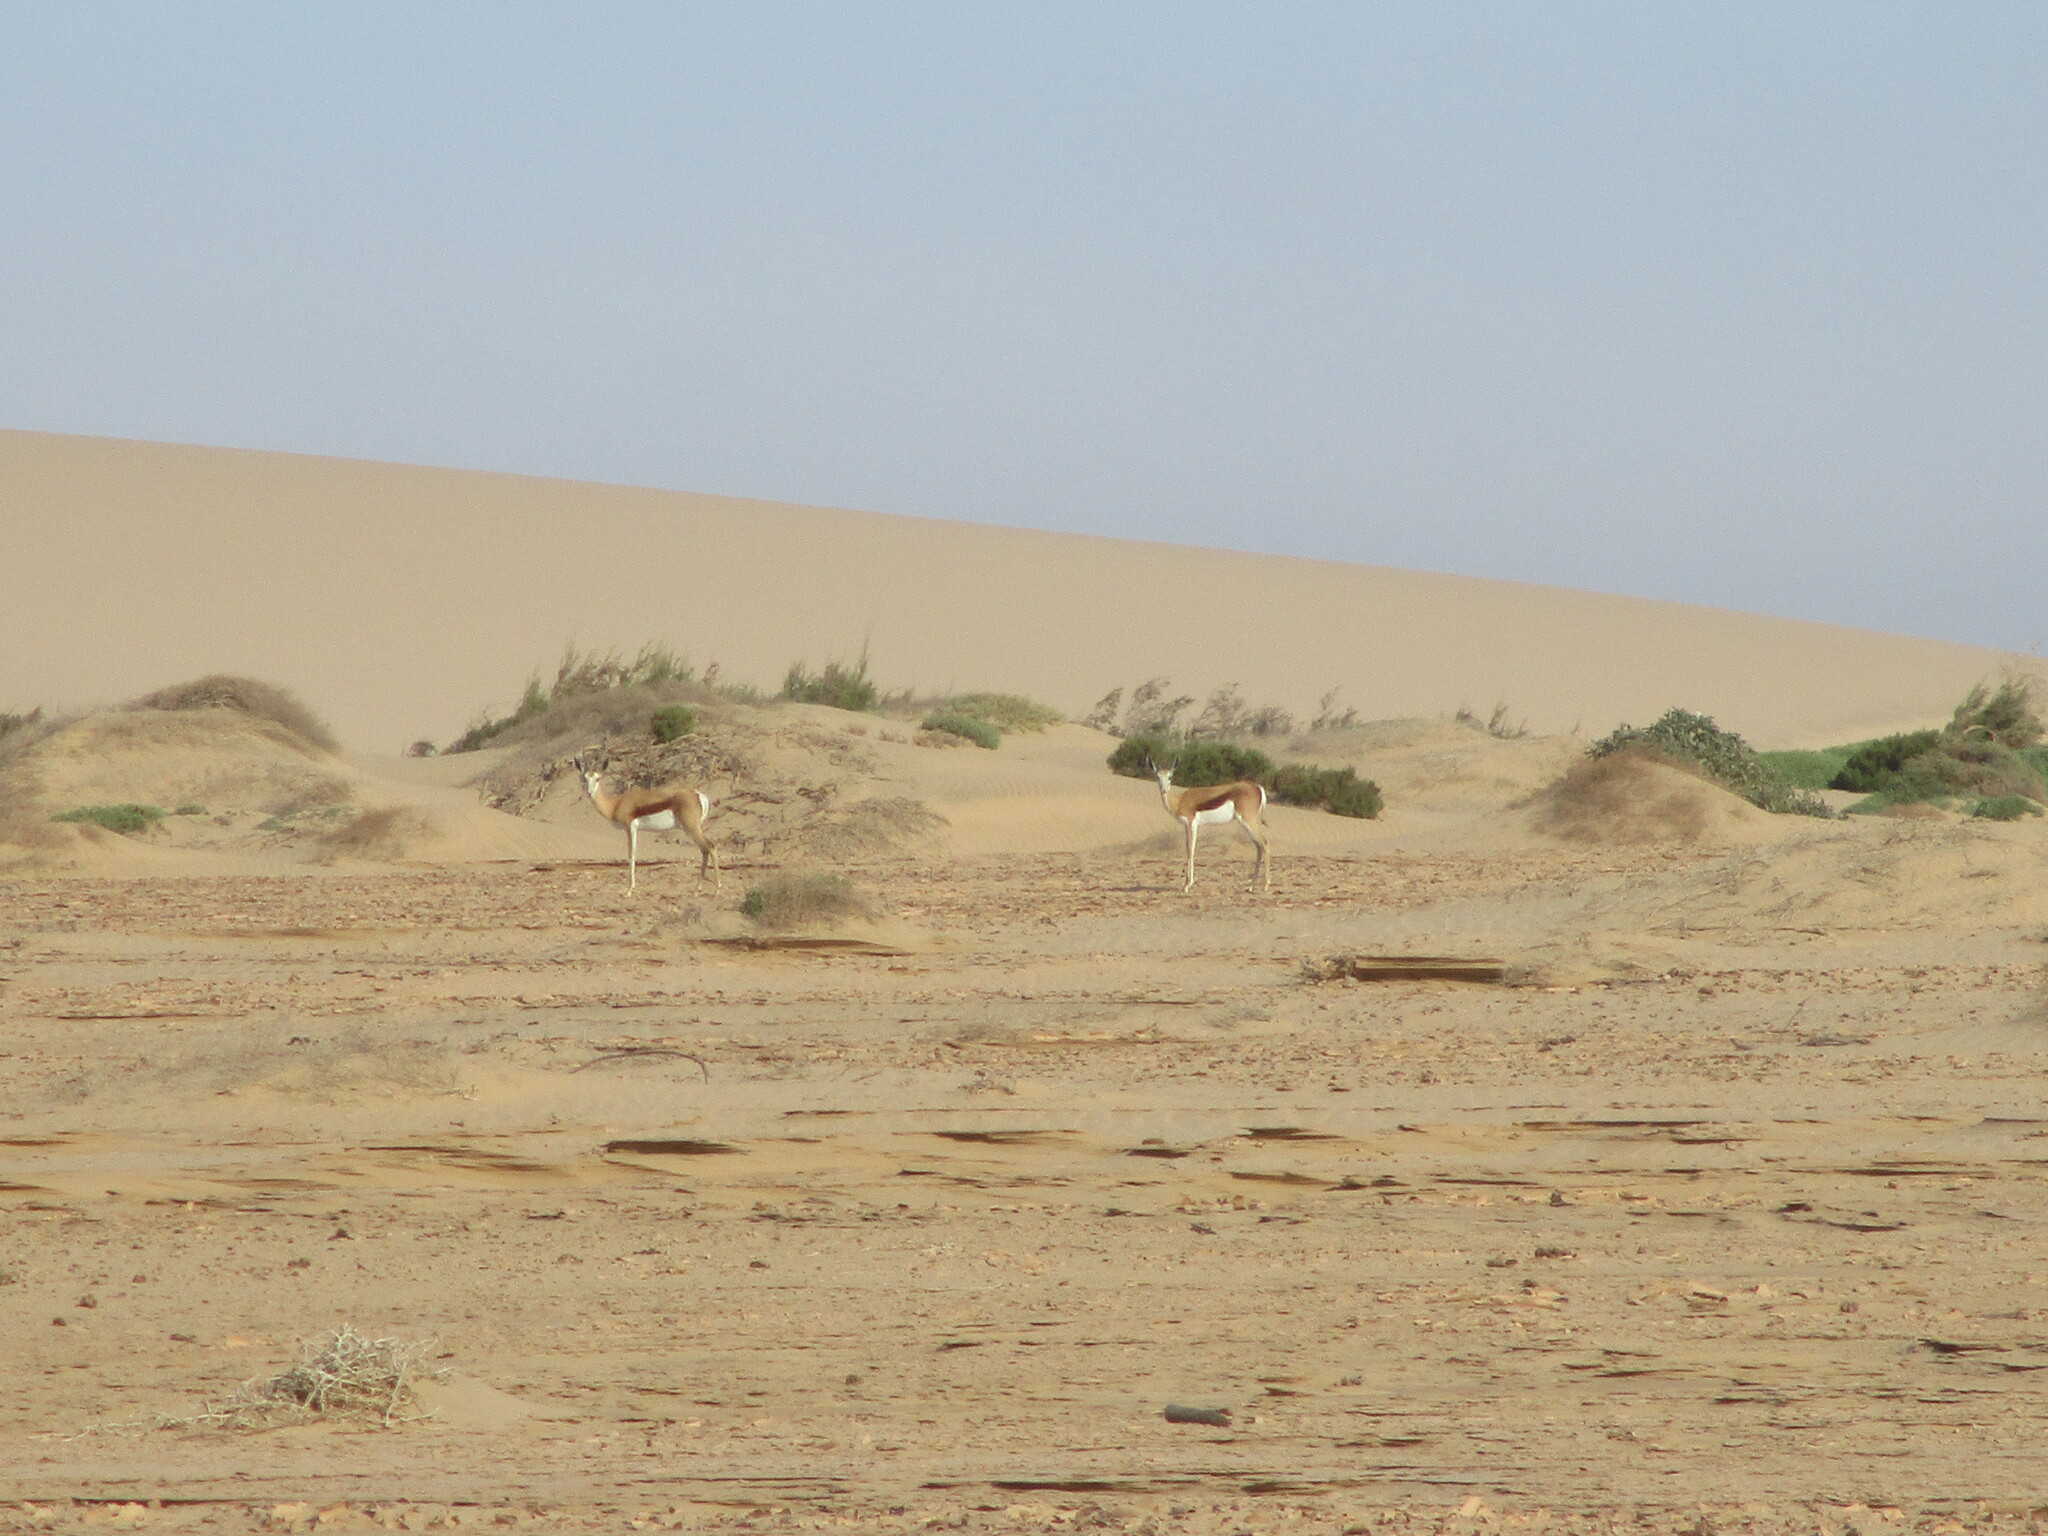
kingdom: Animalia
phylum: Chordata
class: Mammalia
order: Artiodactyla
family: Bovidae
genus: Antidorcas
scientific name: Antidorcas marsupialis
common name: Springbok
